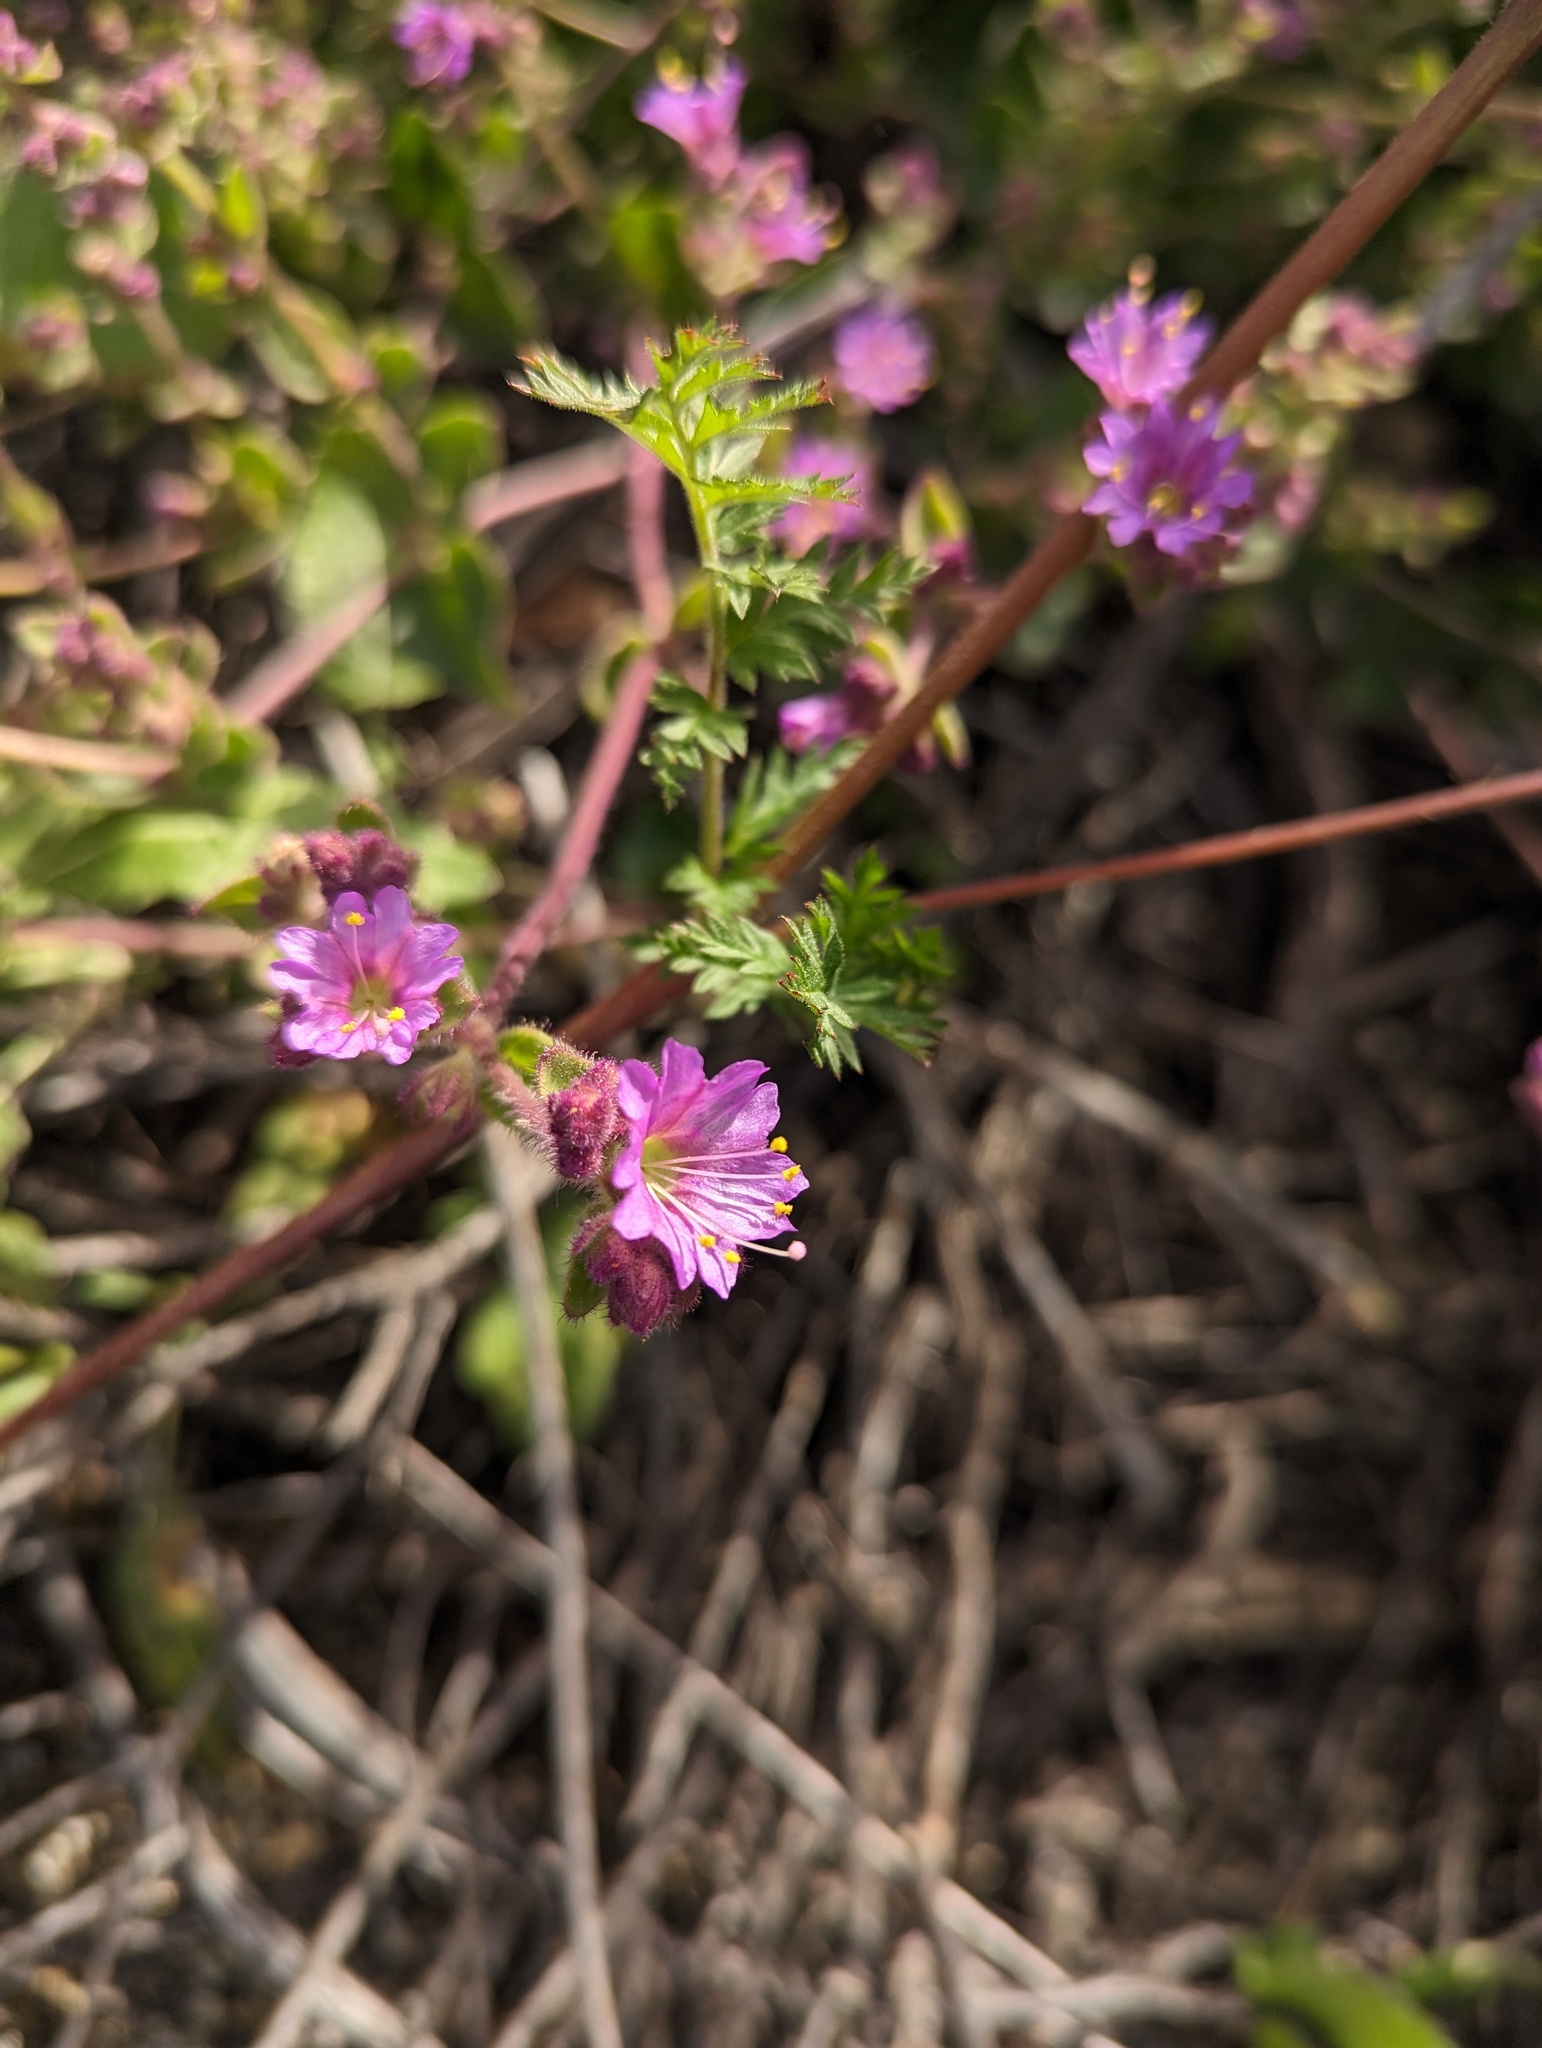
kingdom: Plantae
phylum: Tracheophyta
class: Magnoliopsida
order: Caryophyllales
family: Nyctaginaceae
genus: Mirabilis
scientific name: Mirabilis laevis
